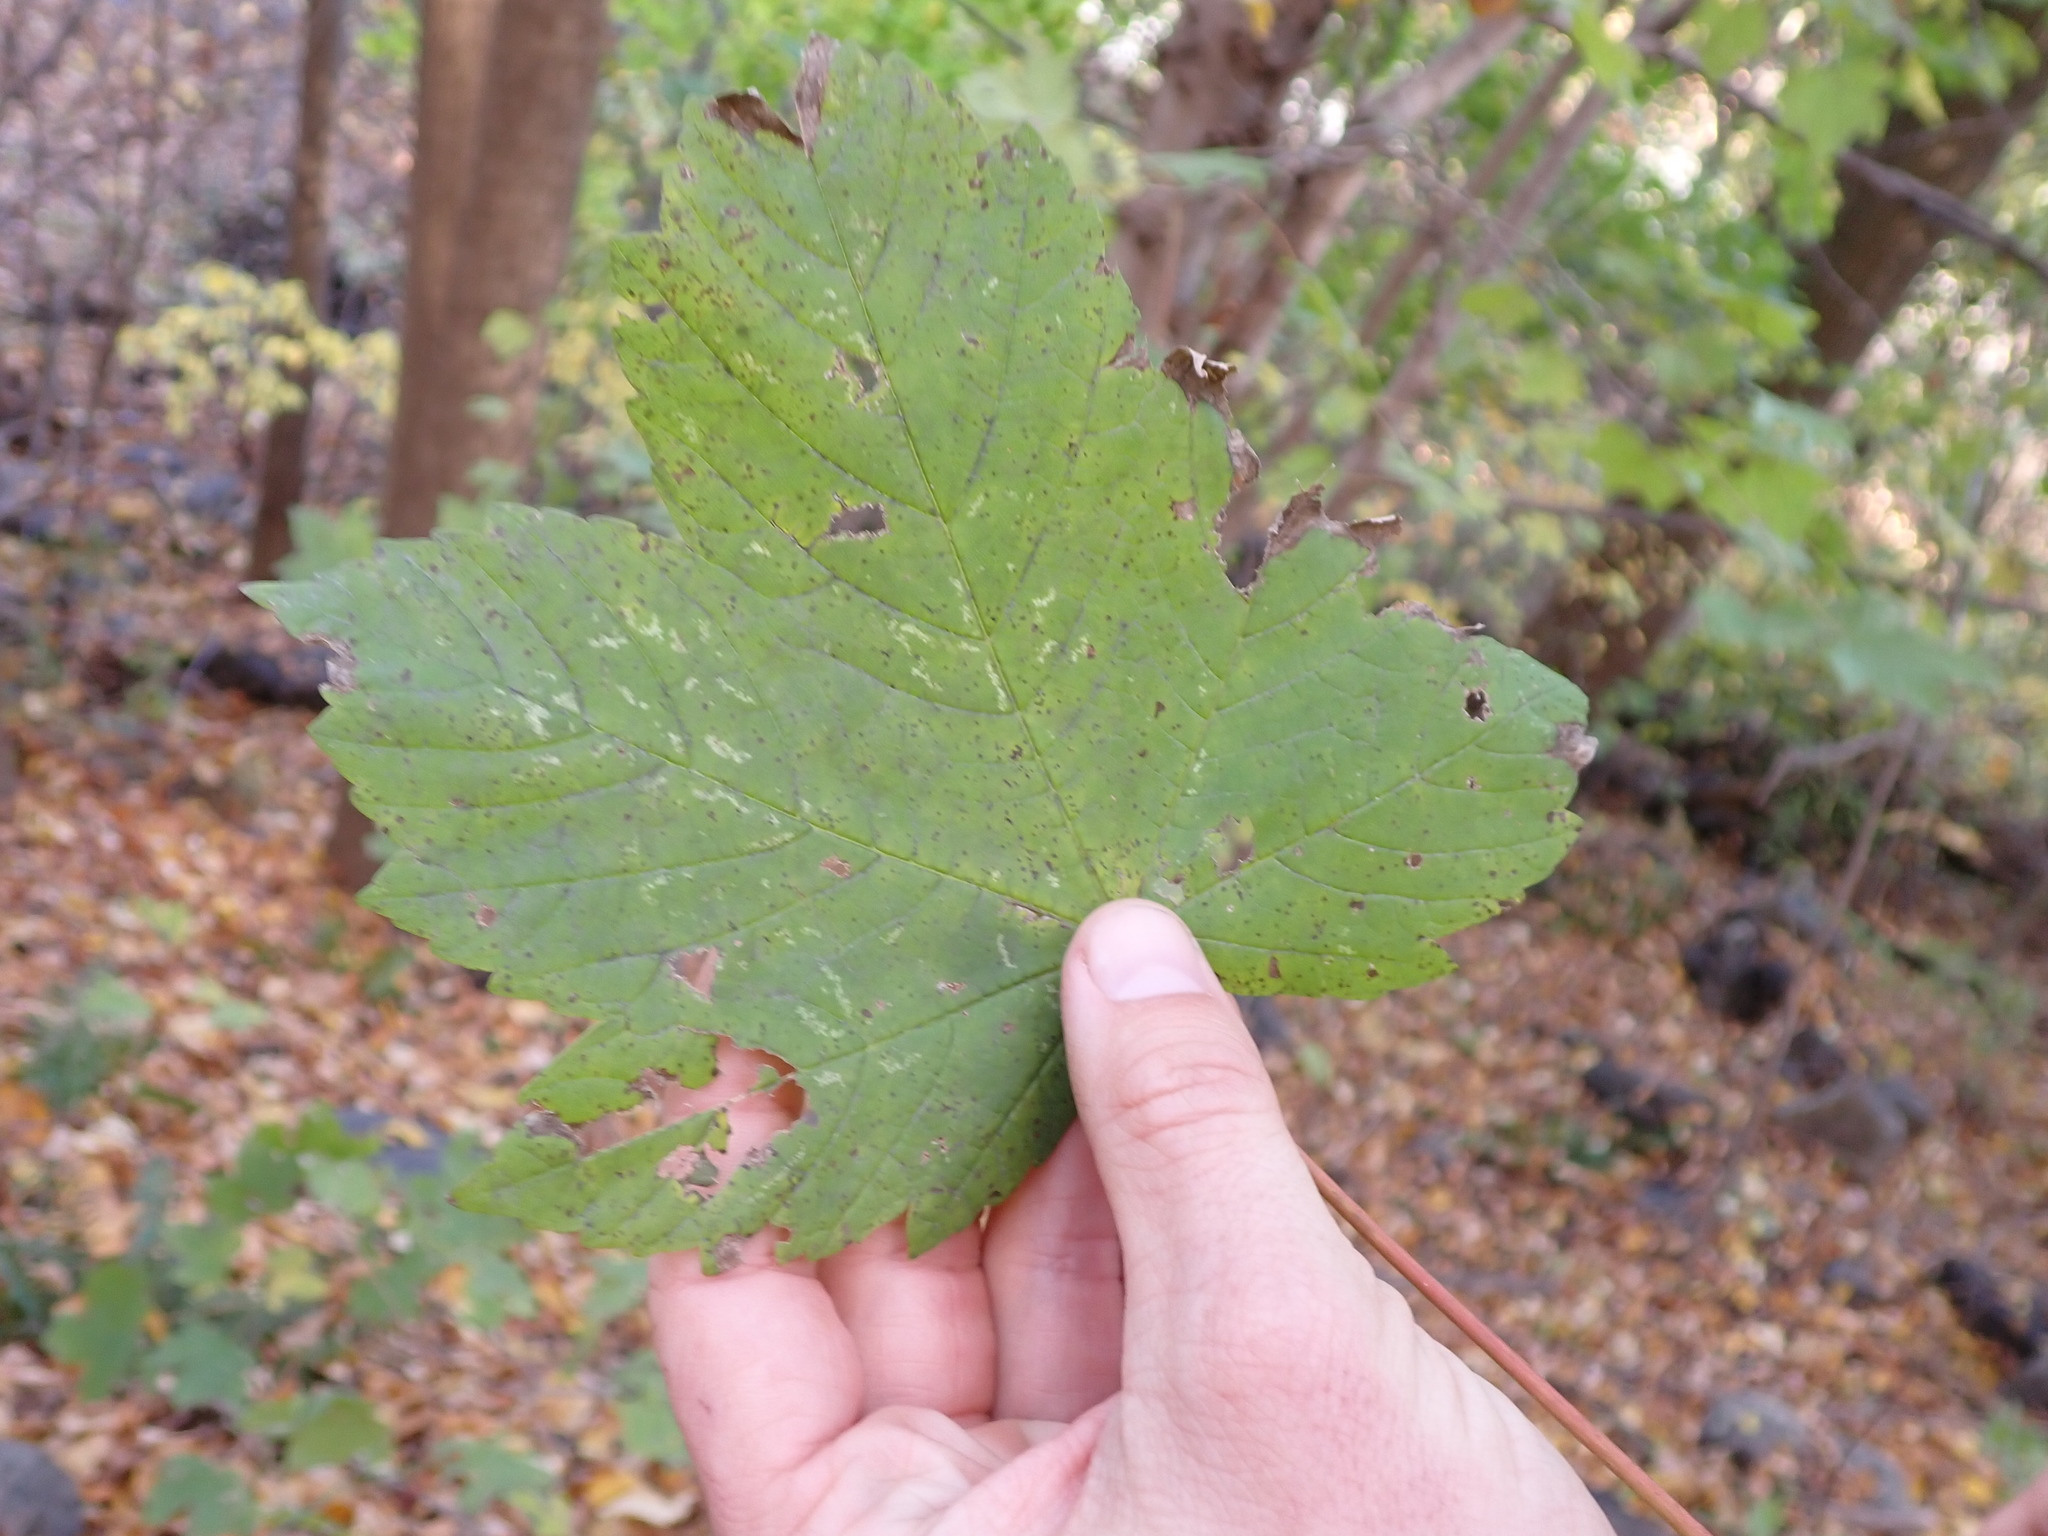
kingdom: Plantae
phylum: Tracheophyta
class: Magnoliopsida
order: Sapindales
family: Sapindaceae
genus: Acer
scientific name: Acer pseudoplatanus
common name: Sycamore
